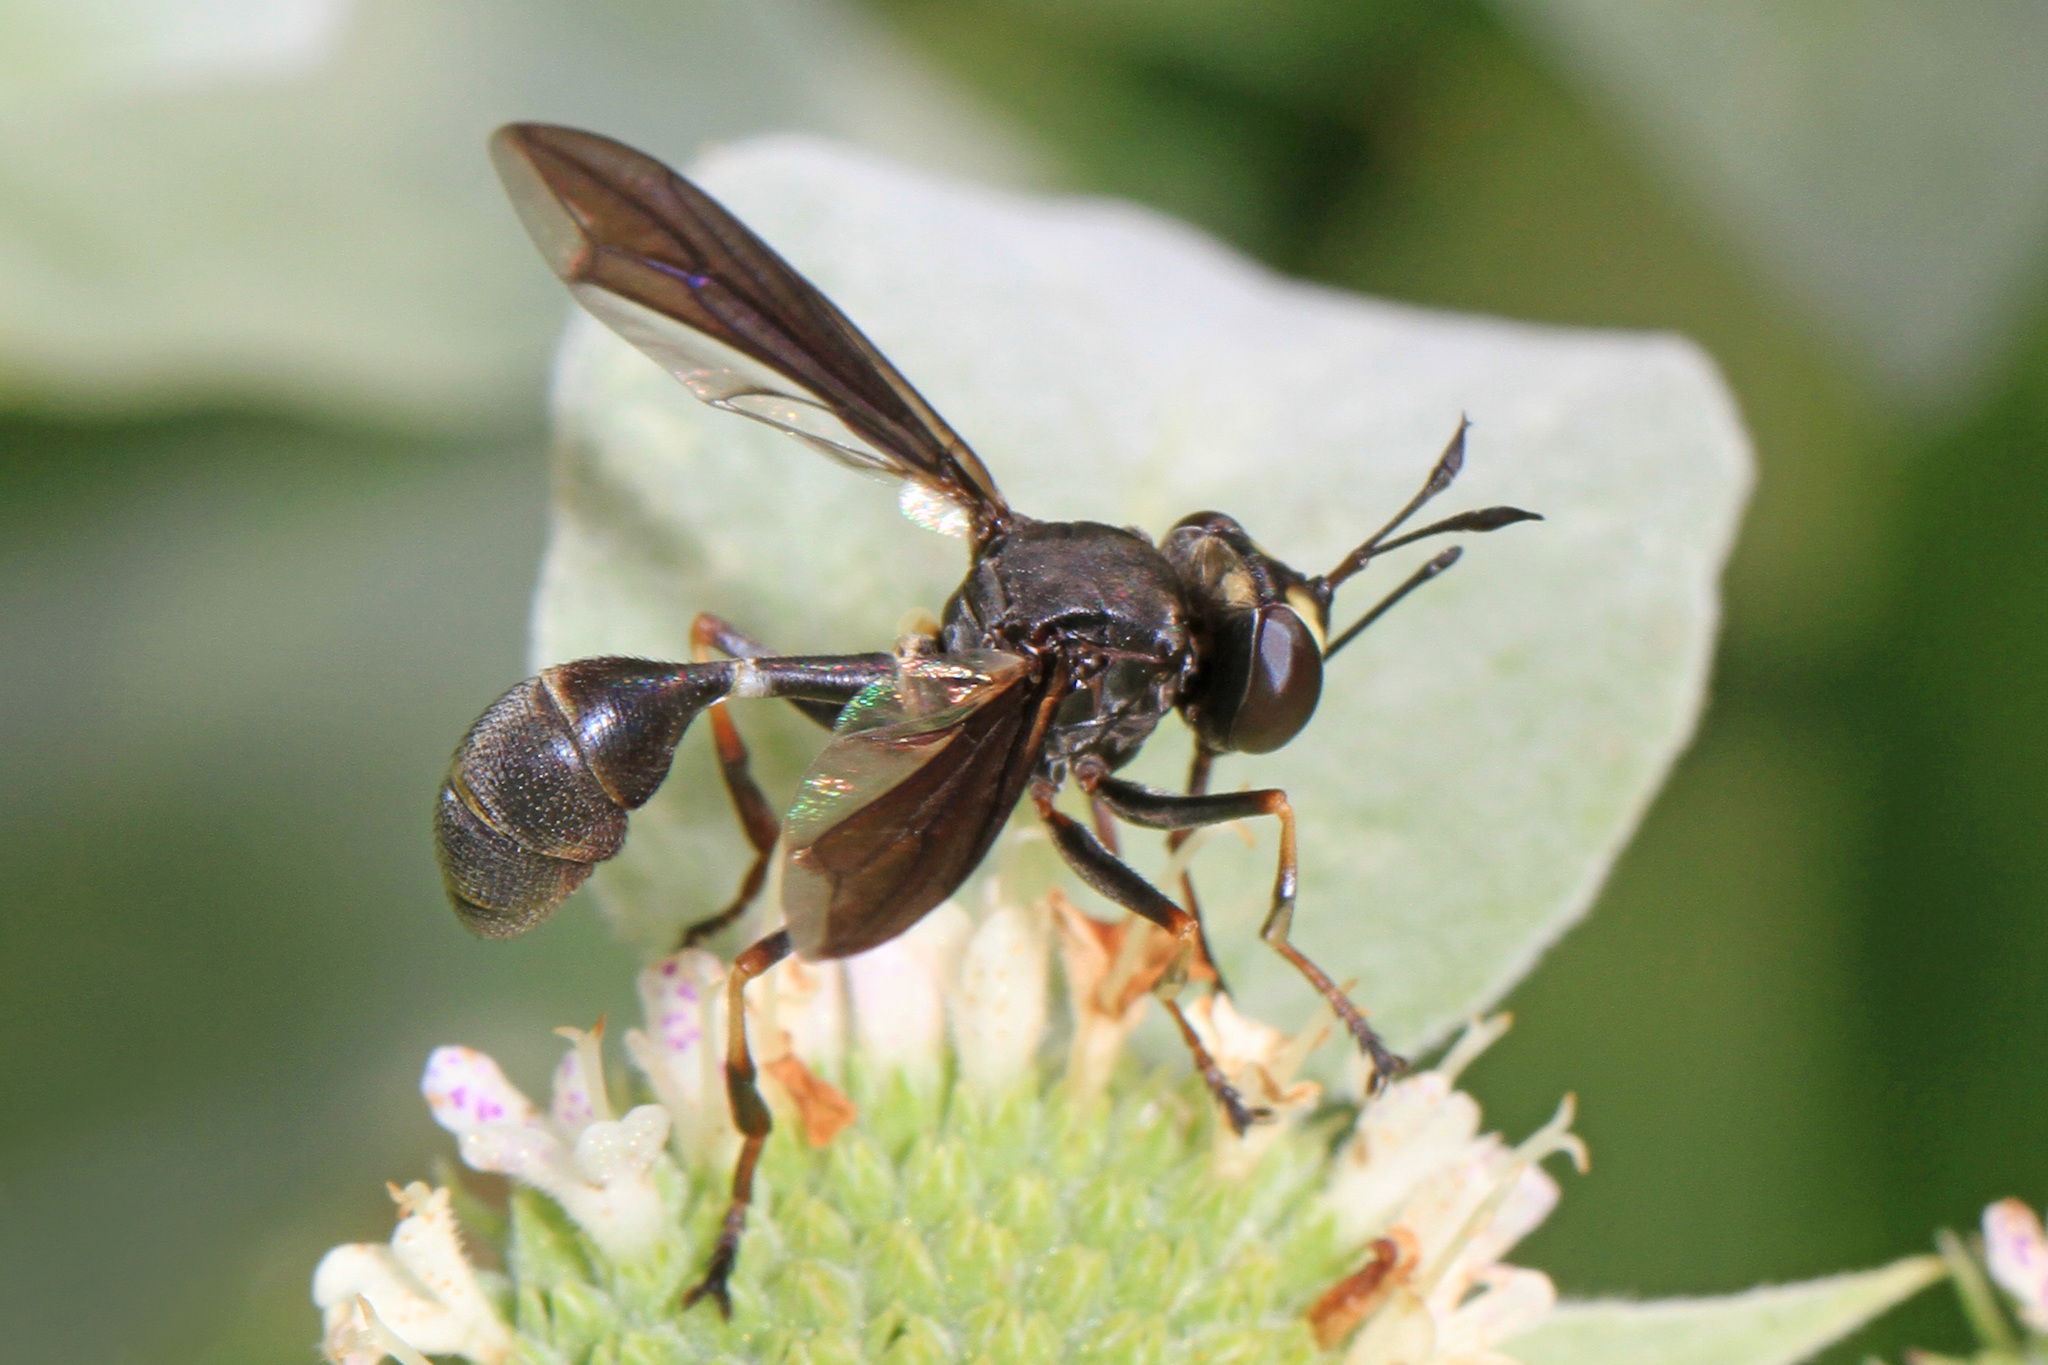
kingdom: Animalia
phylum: Arthropoda
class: Insecta
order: Diptera
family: Conopidae
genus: Physocephala
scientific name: Physocephala tibialis
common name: Common eastern physocephala
